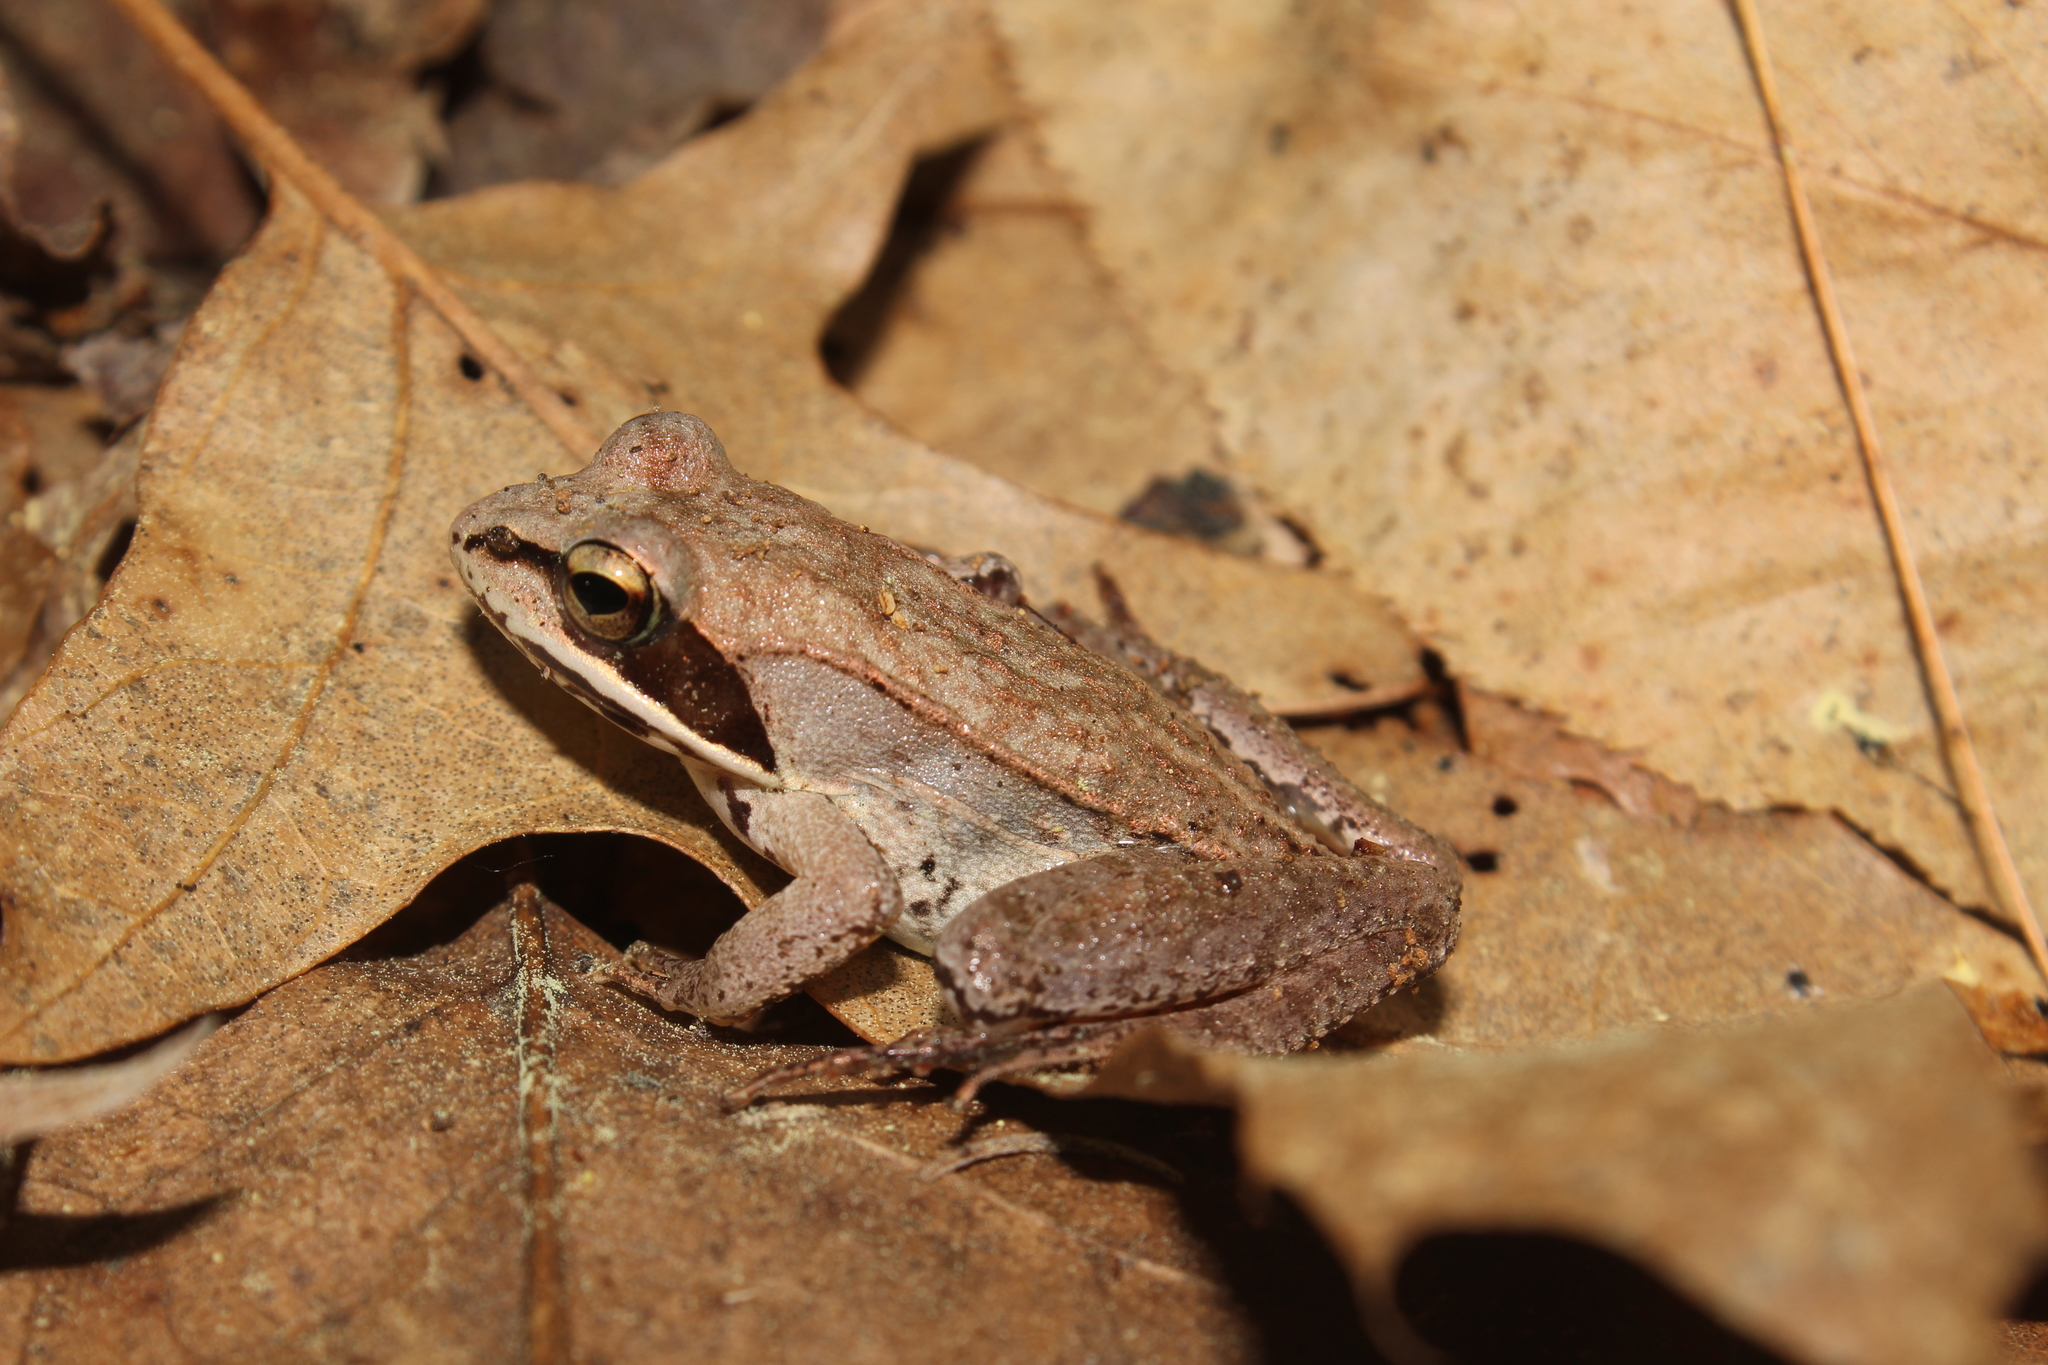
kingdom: Animalia
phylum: Chordata
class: Amphibia
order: Anura
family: Ranidae
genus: Lithobates
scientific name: Lithobates sylvaticus
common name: Wood frog
